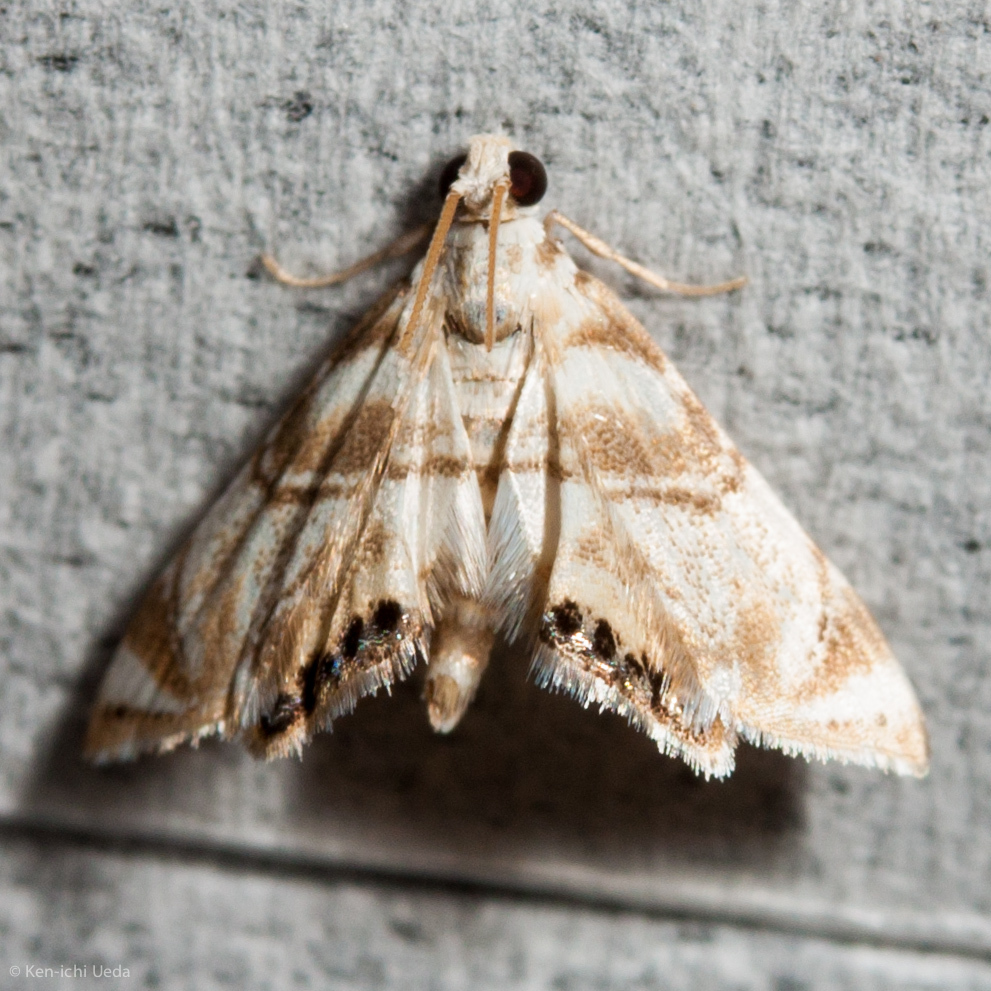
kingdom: Animalia
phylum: Arthropoda
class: Insecta
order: Lepidoptera
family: Crambidae
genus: Eoparargyractis
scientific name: Eoparargyractis plevie
